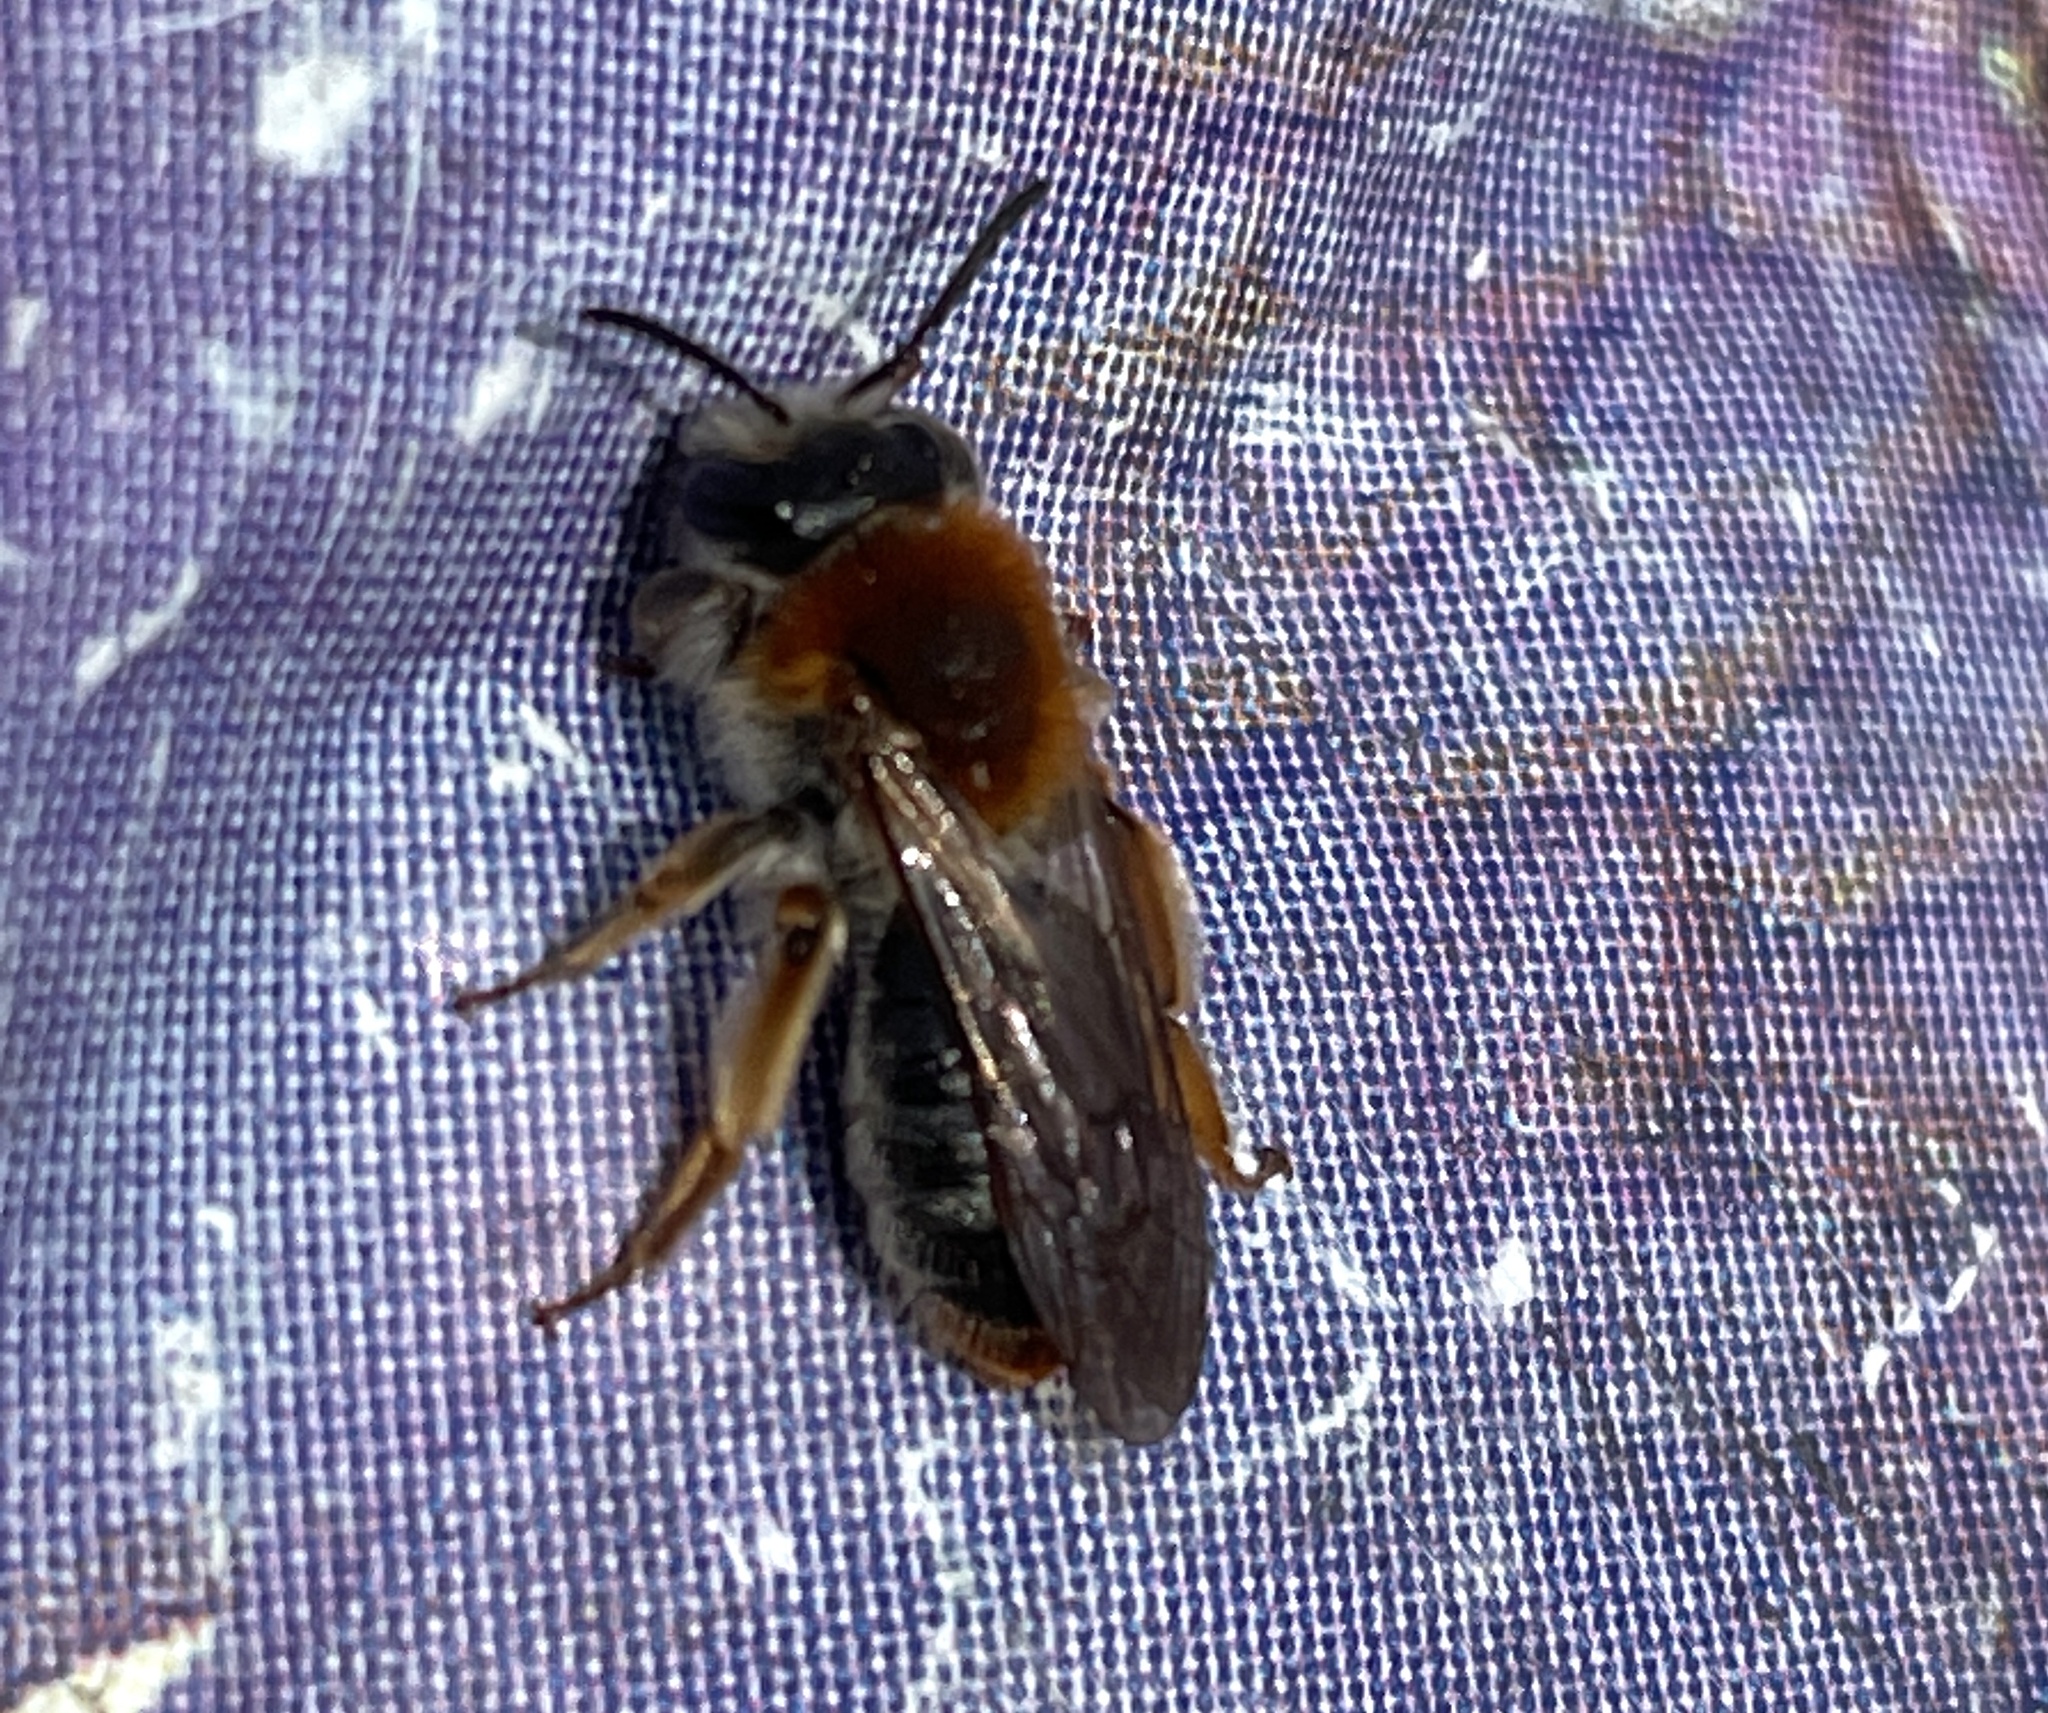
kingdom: Animalia
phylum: Arthropoda
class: Insecta
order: Hymenoptera
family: Andrenidae
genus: Andrena
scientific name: Andrena haemorrhoa
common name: Early mining bee
